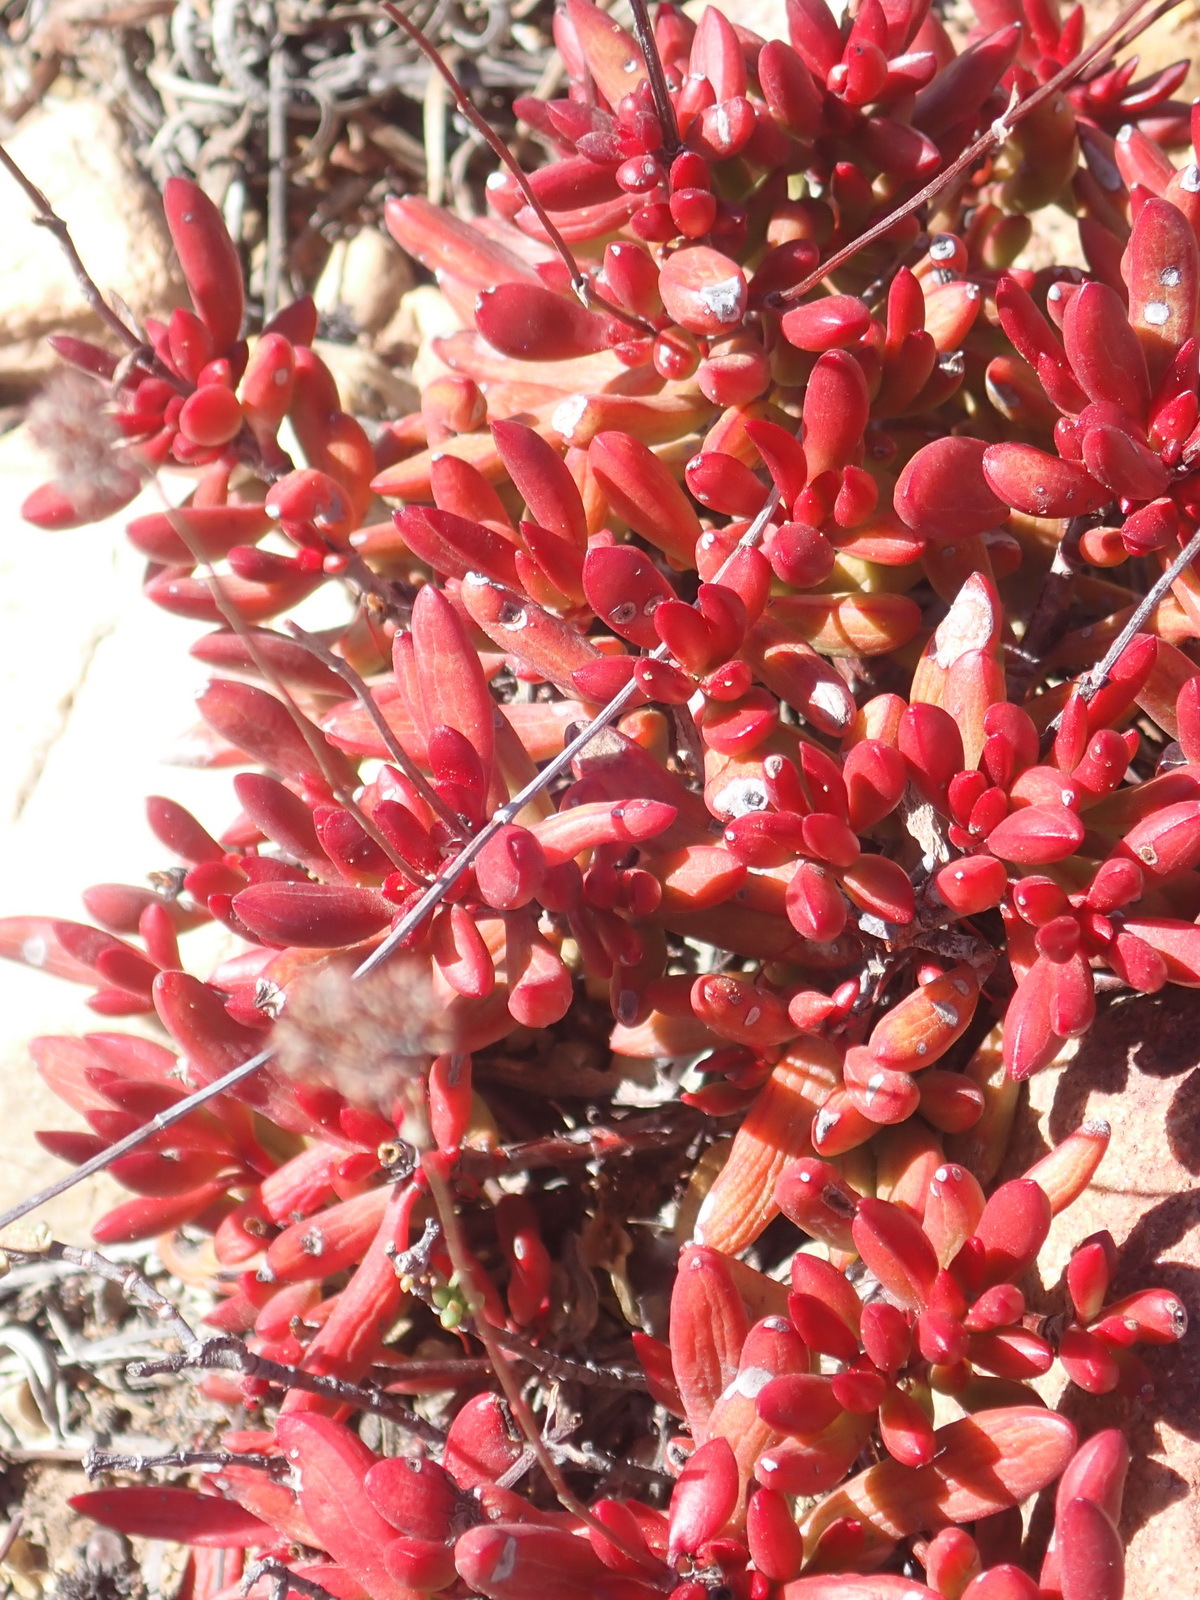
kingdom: Plantae
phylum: Tracheophyta
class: Magnoliopsida
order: Saxifragales
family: Crassulaceae
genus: Crassula
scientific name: Crassula atropurpurea
